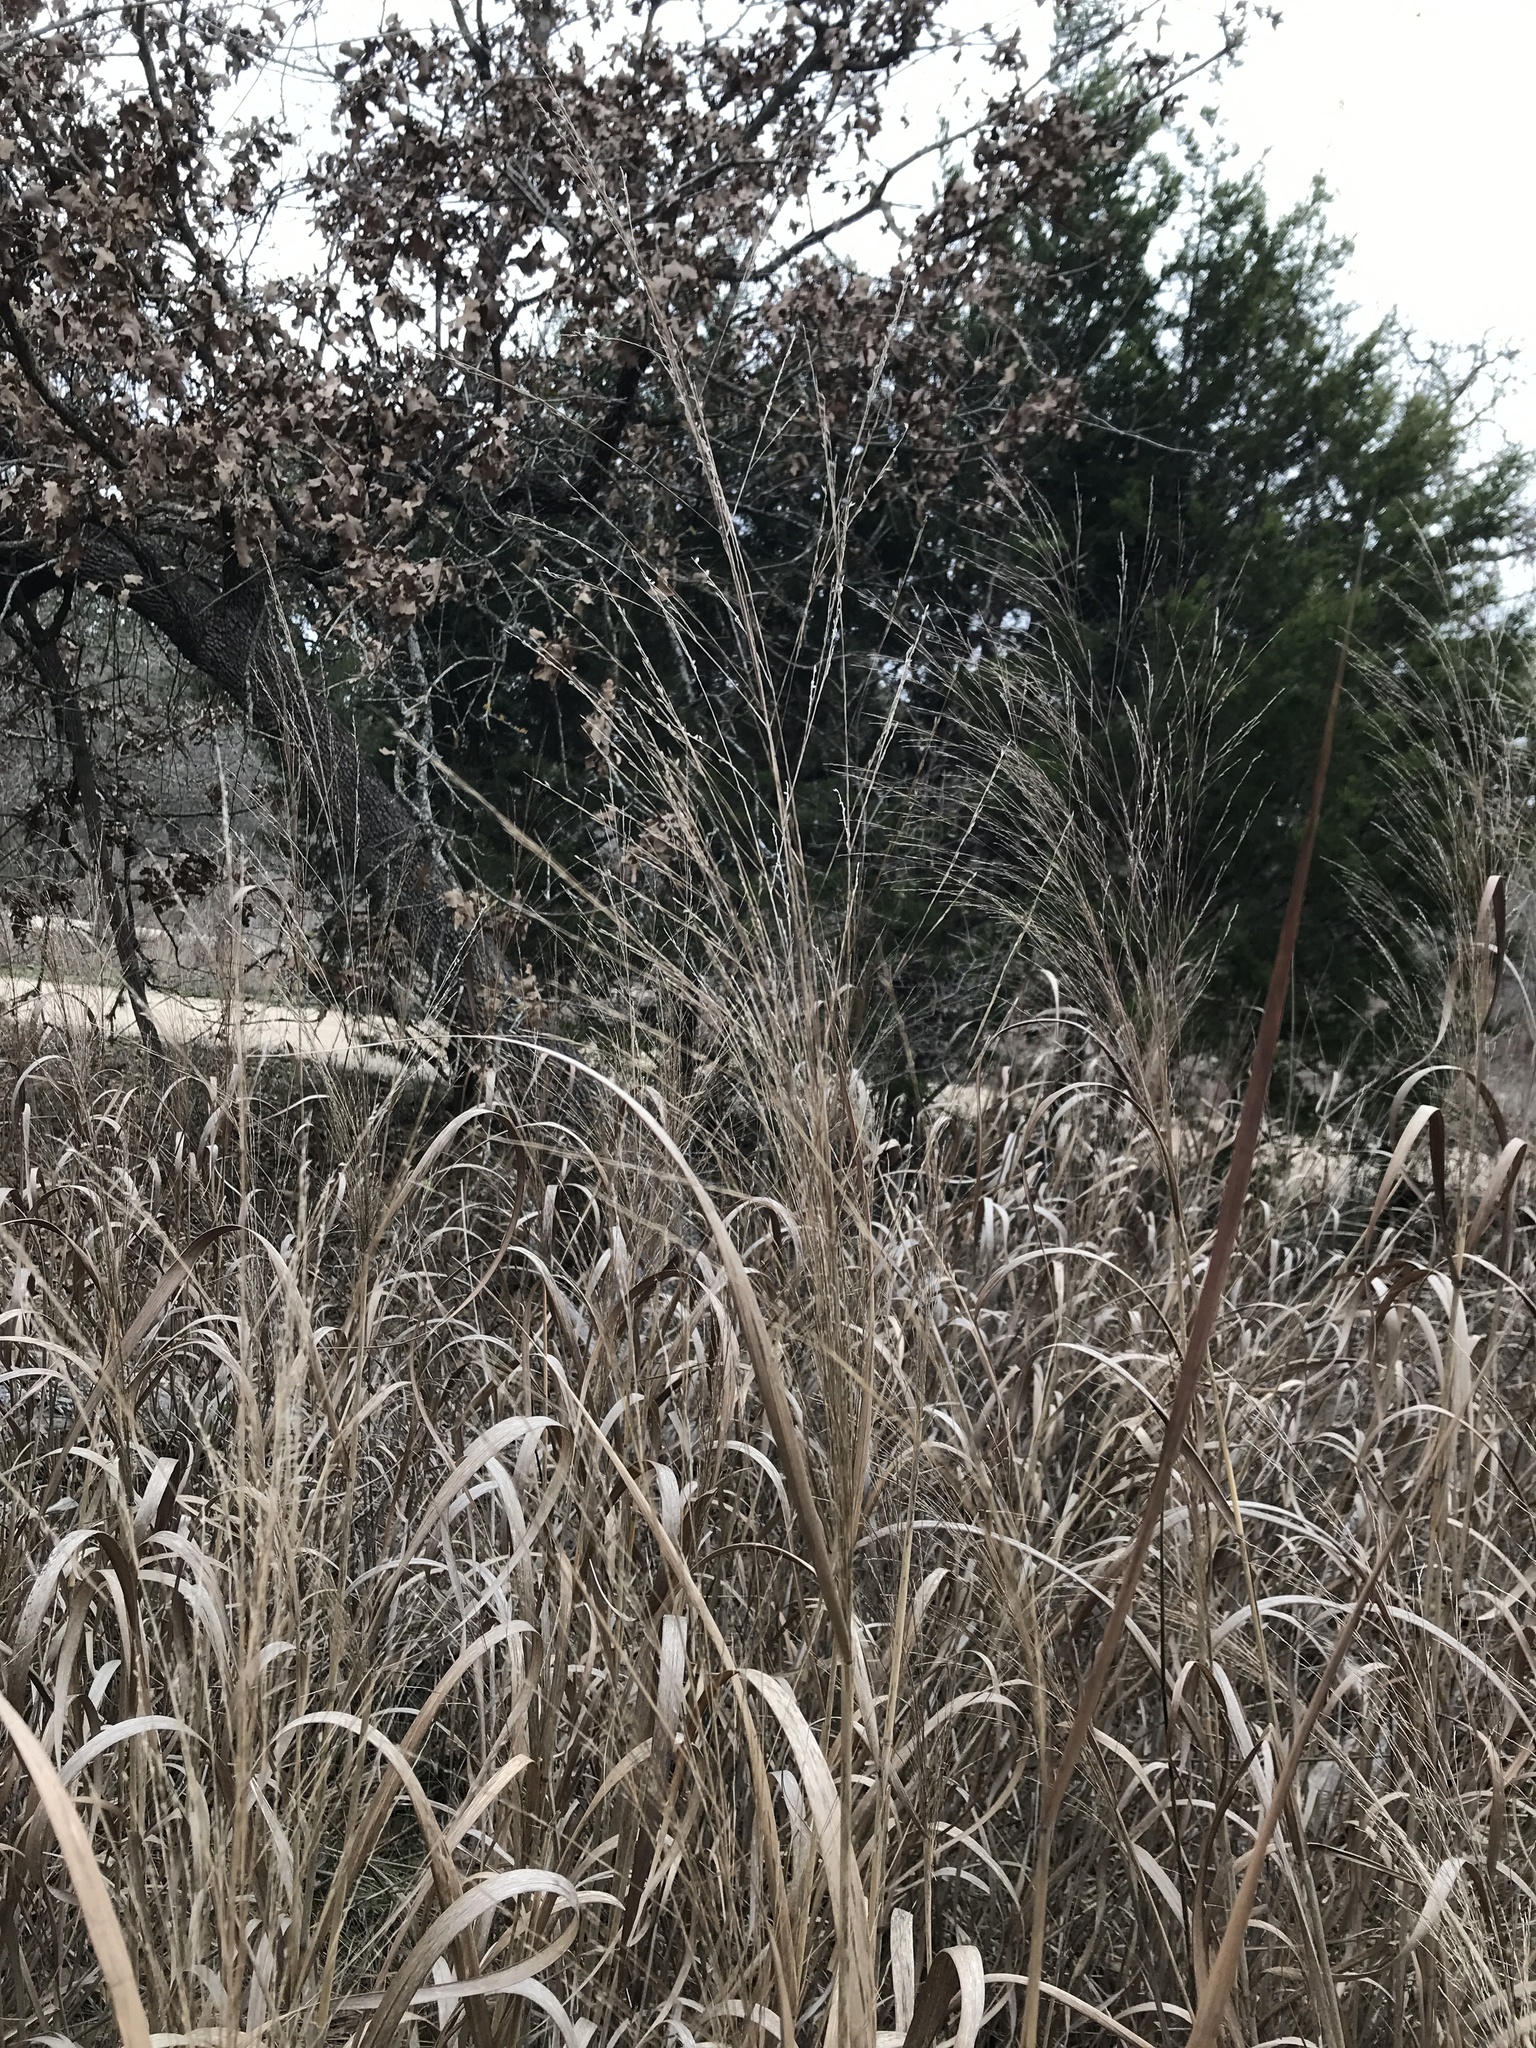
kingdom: Plantae
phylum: Tracheophyta
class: Liliopsida
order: Poales
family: Poaceae
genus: Panicum
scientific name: Panicum virgatum
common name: Switchgrass
